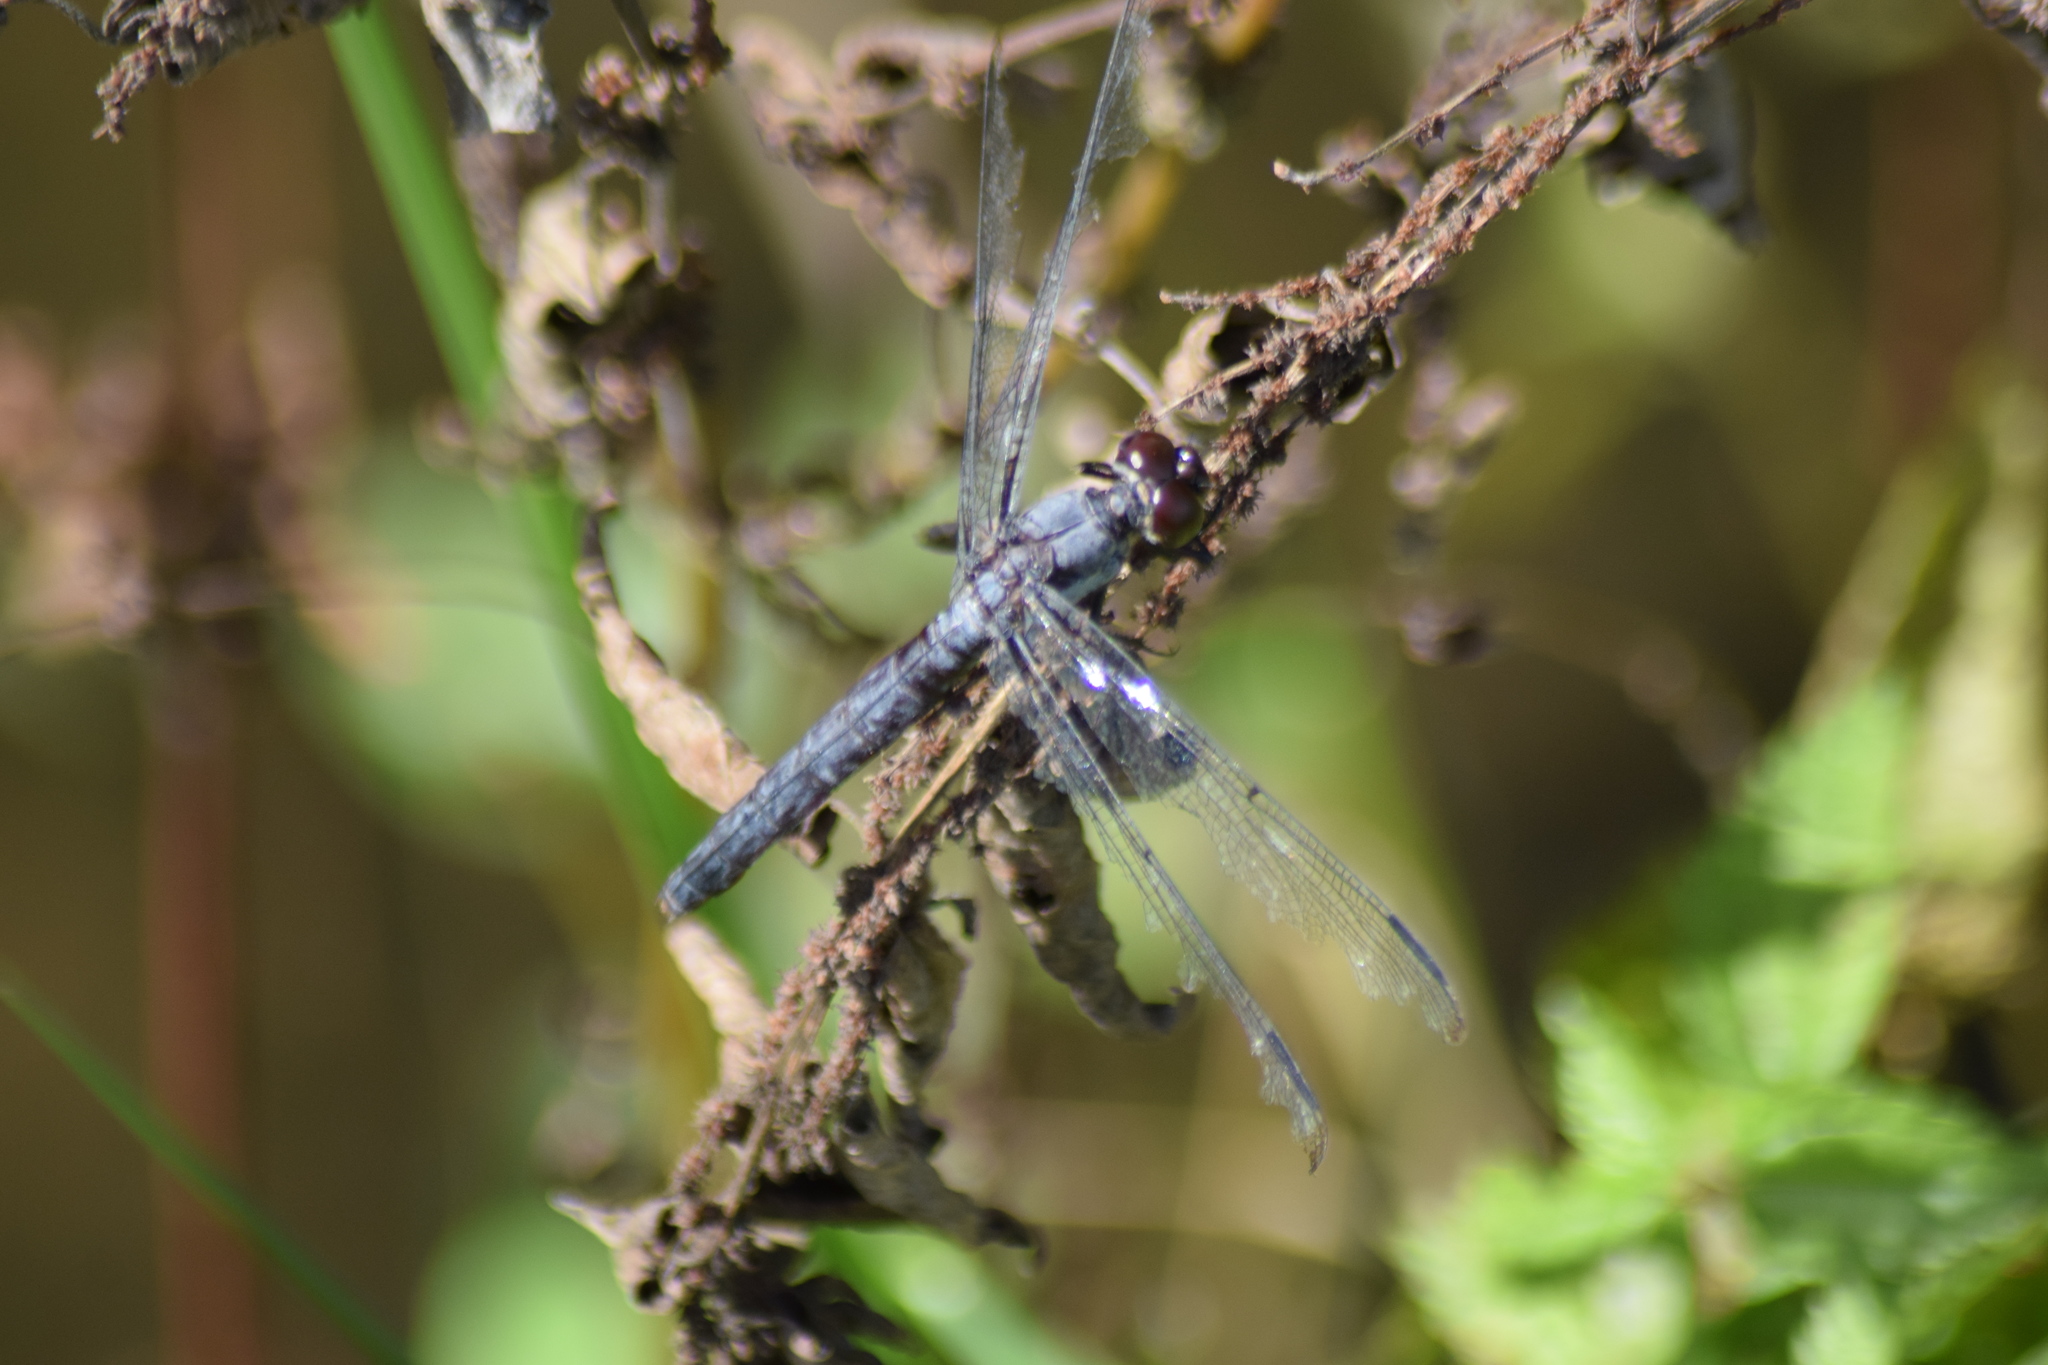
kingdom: Animalia
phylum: Arthropoda
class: Insecta
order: Odonata
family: Libellulidae
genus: Libellula
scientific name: Libellula incesta
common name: Slaty skimmer
